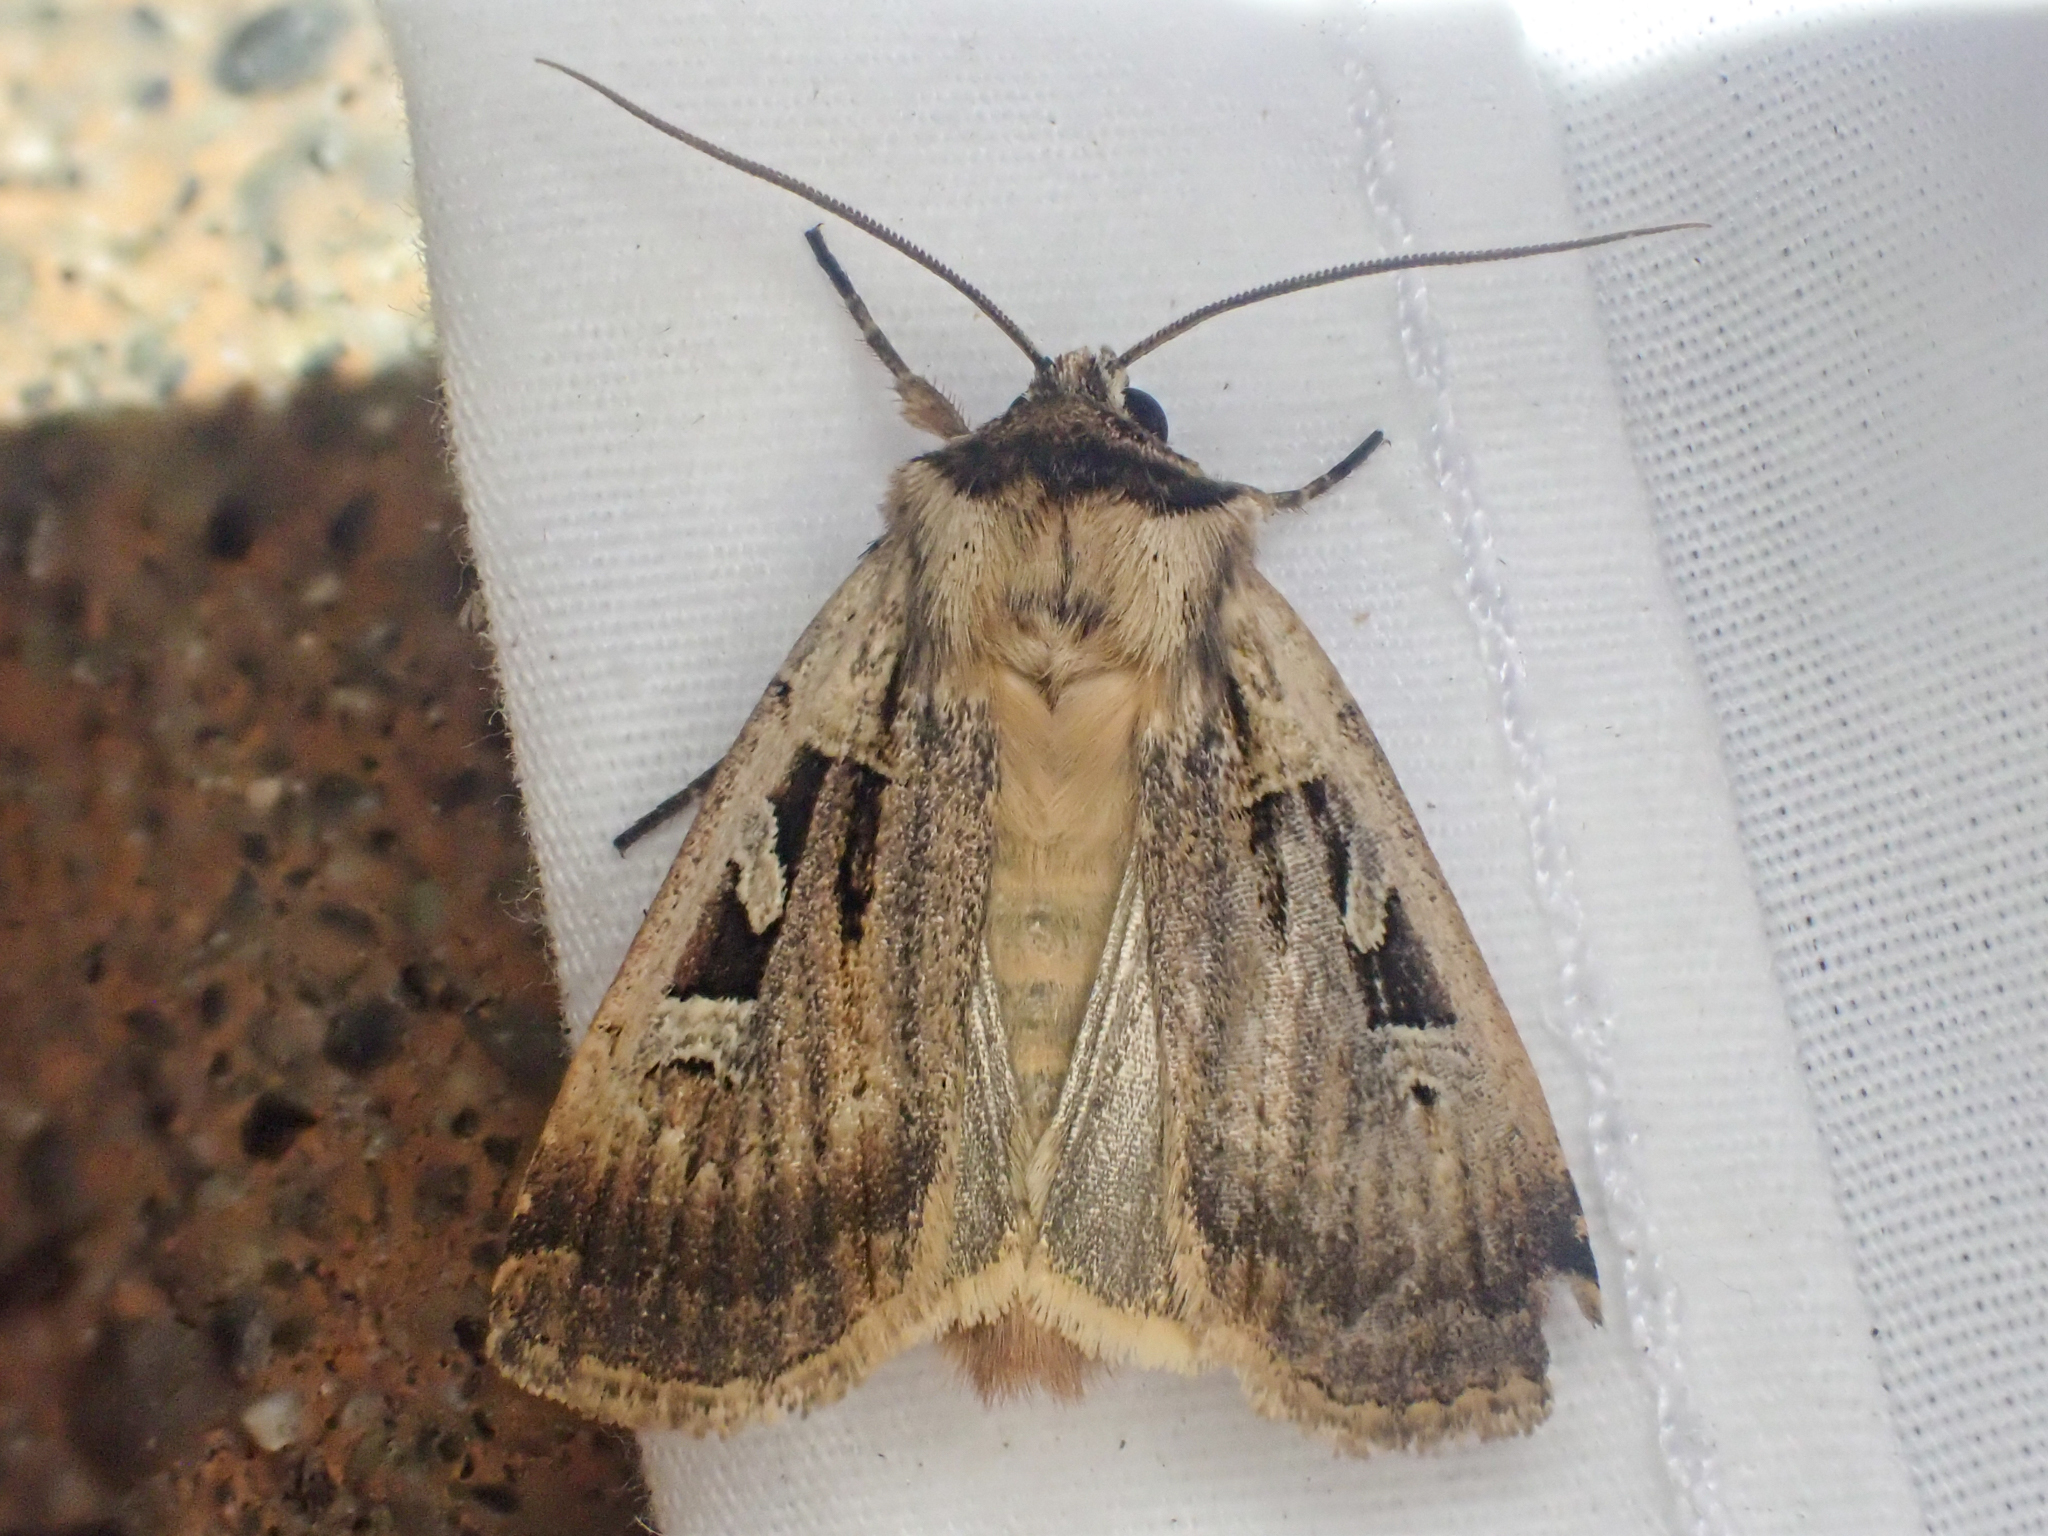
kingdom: Animalia
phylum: Arthropoda
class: Insecta
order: Lepidoptera
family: Noctuidae
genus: Pseudohermonassa
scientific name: Pseudohermonassa flavotincta
